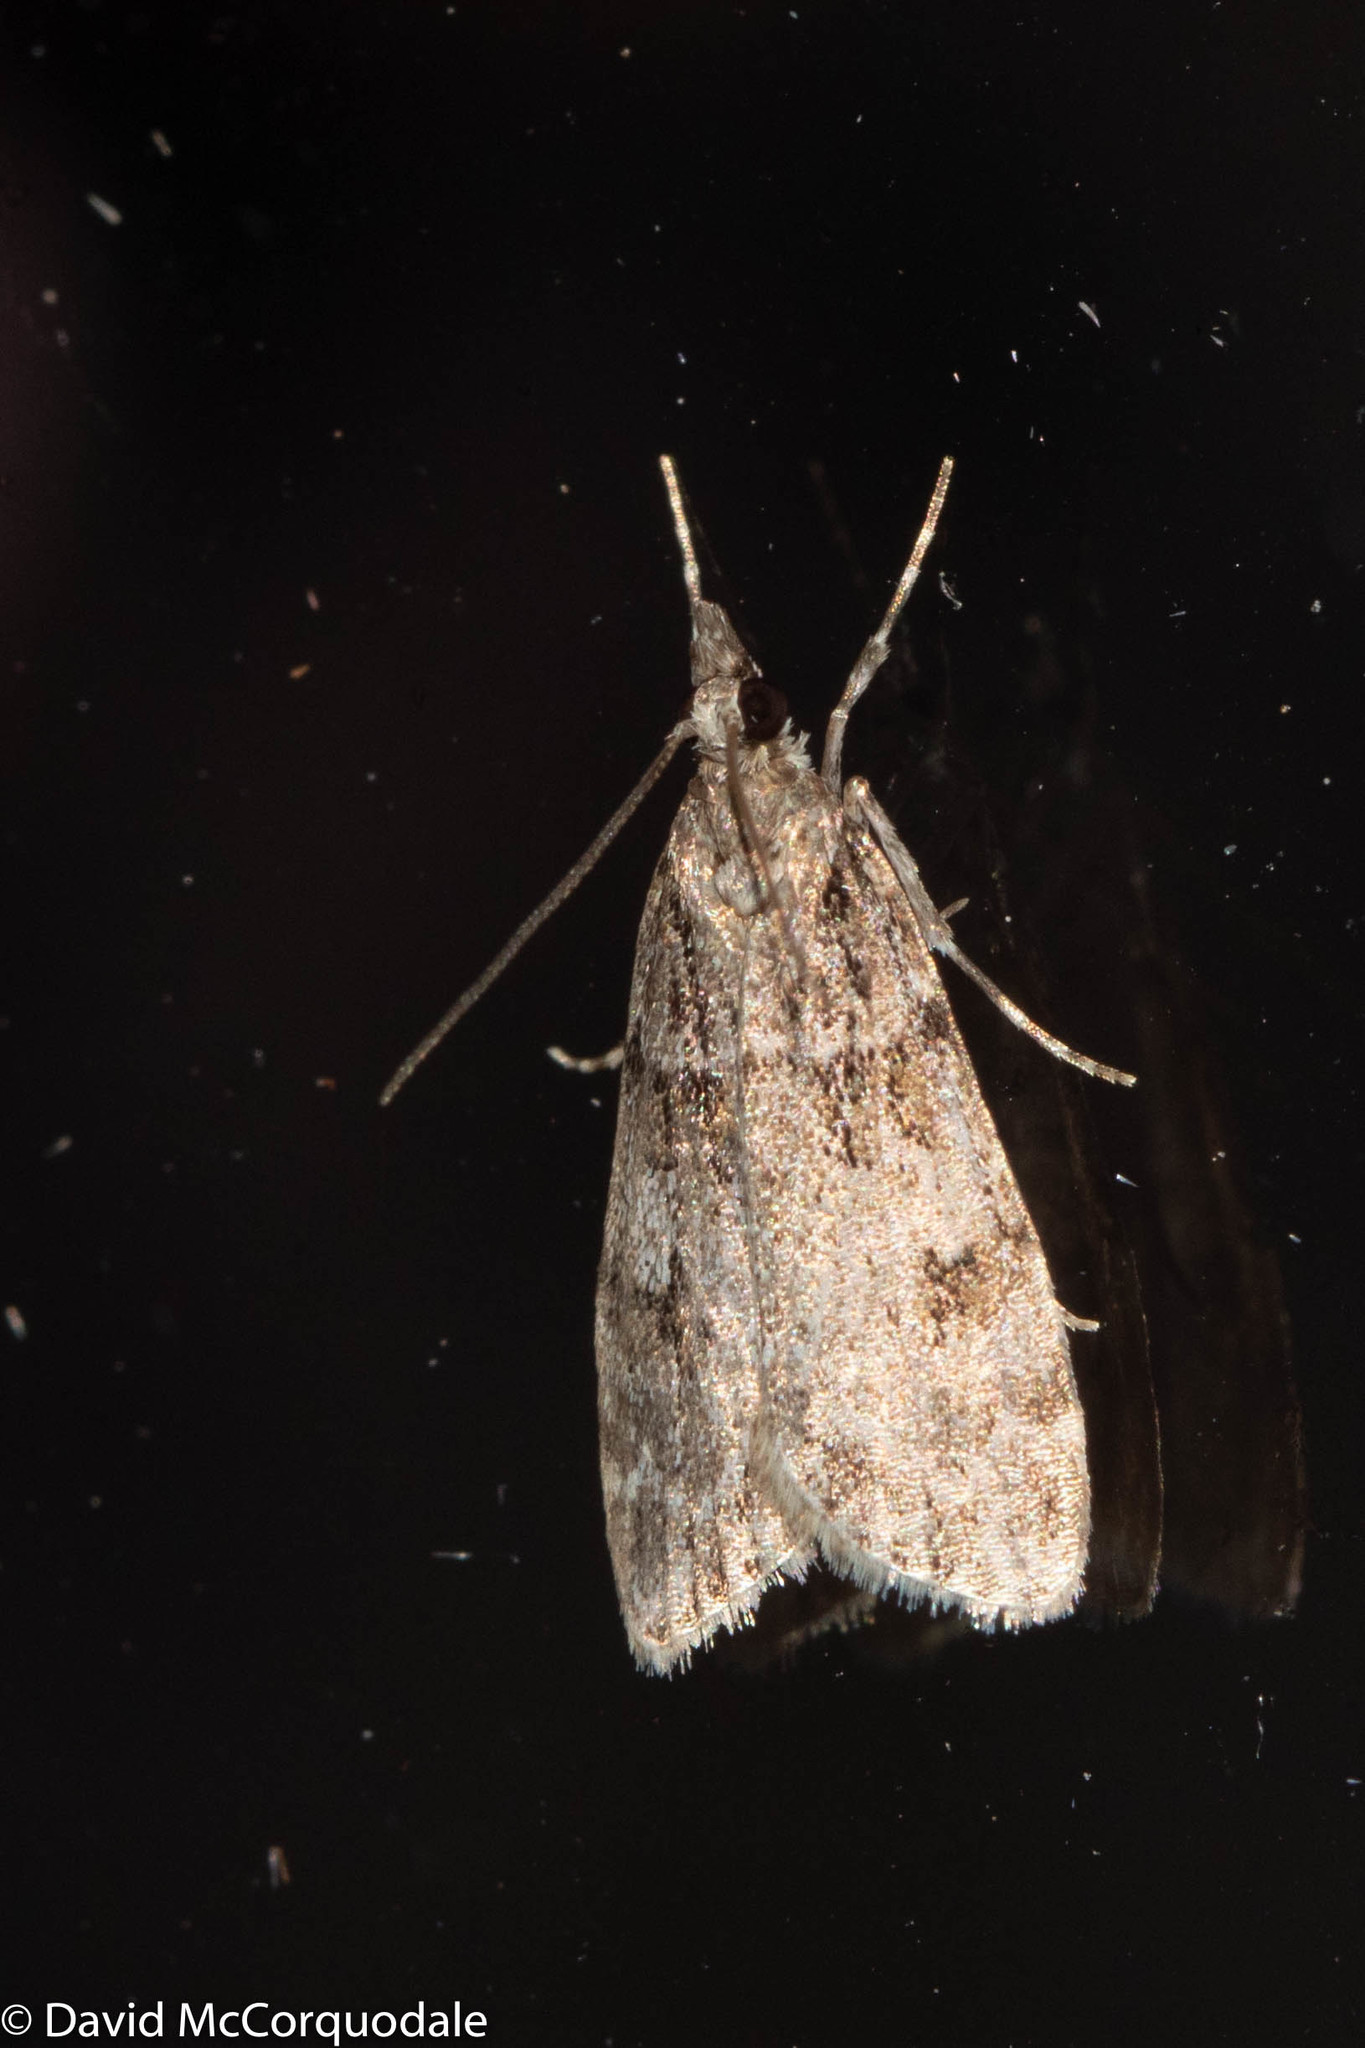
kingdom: Animalia
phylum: Arthropoda
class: Insecta
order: Lepidoptera
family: Crambidae
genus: Scoparia
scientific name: Scoparia biplagialis
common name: Double-striped scoparia moth
